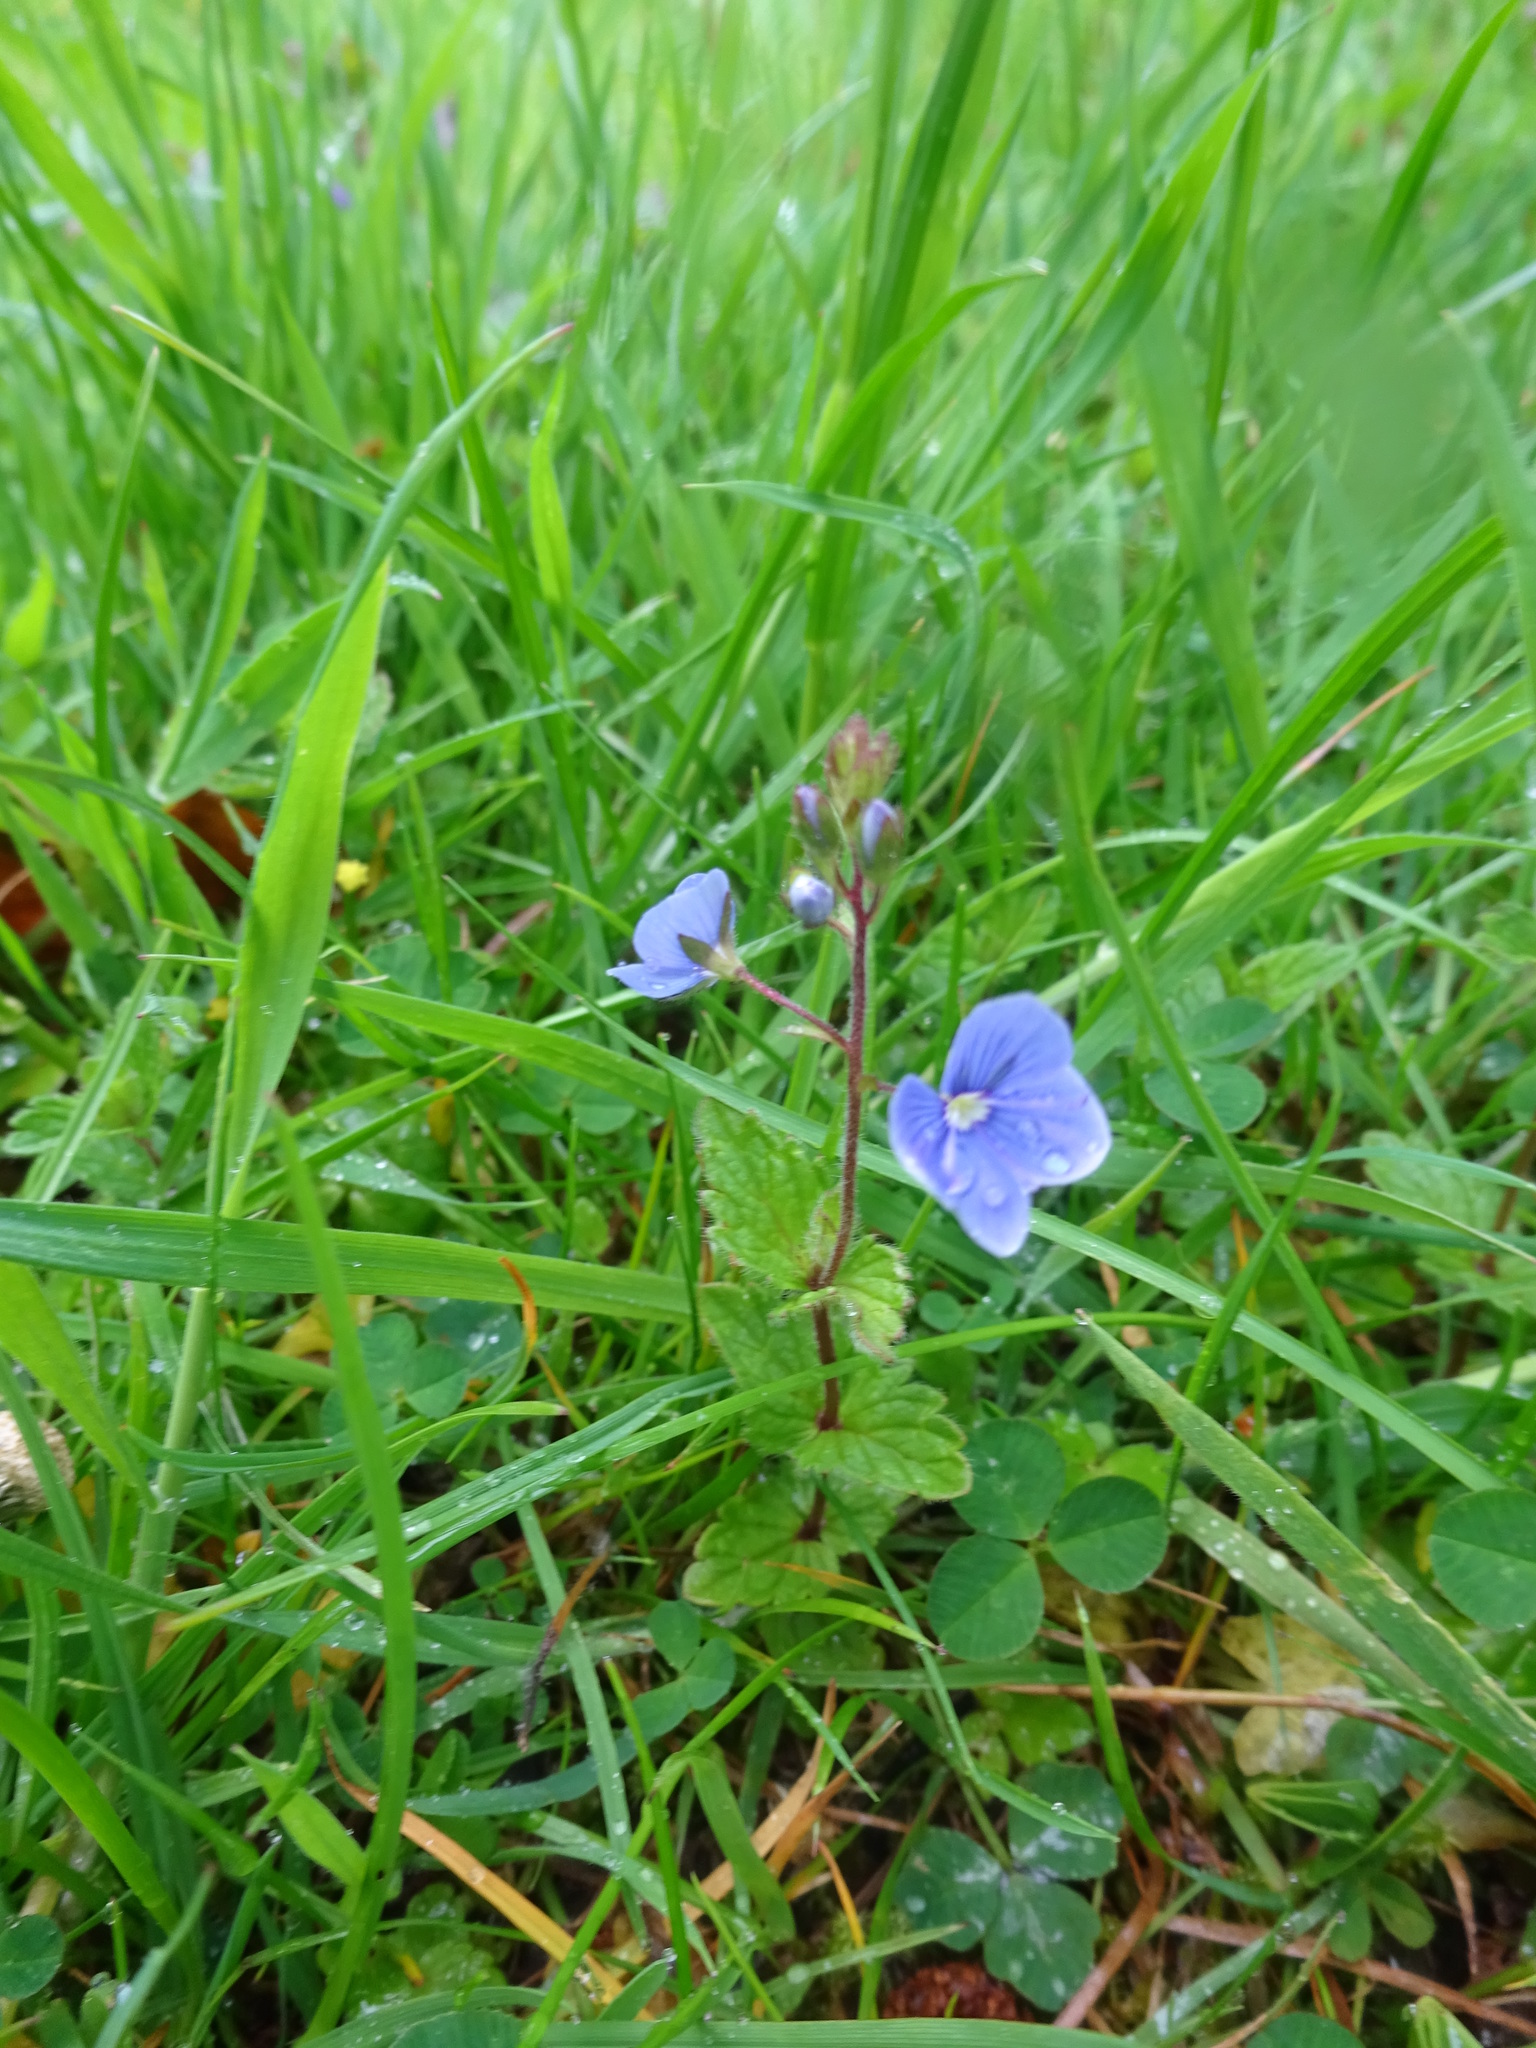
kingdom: Plantae
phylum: Tracheophyta
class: Magnoliopsida
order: Lamiales
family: Plantaginaceae
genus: Veronica
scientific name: Veronica chamaedrys
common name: Germander speedwell
